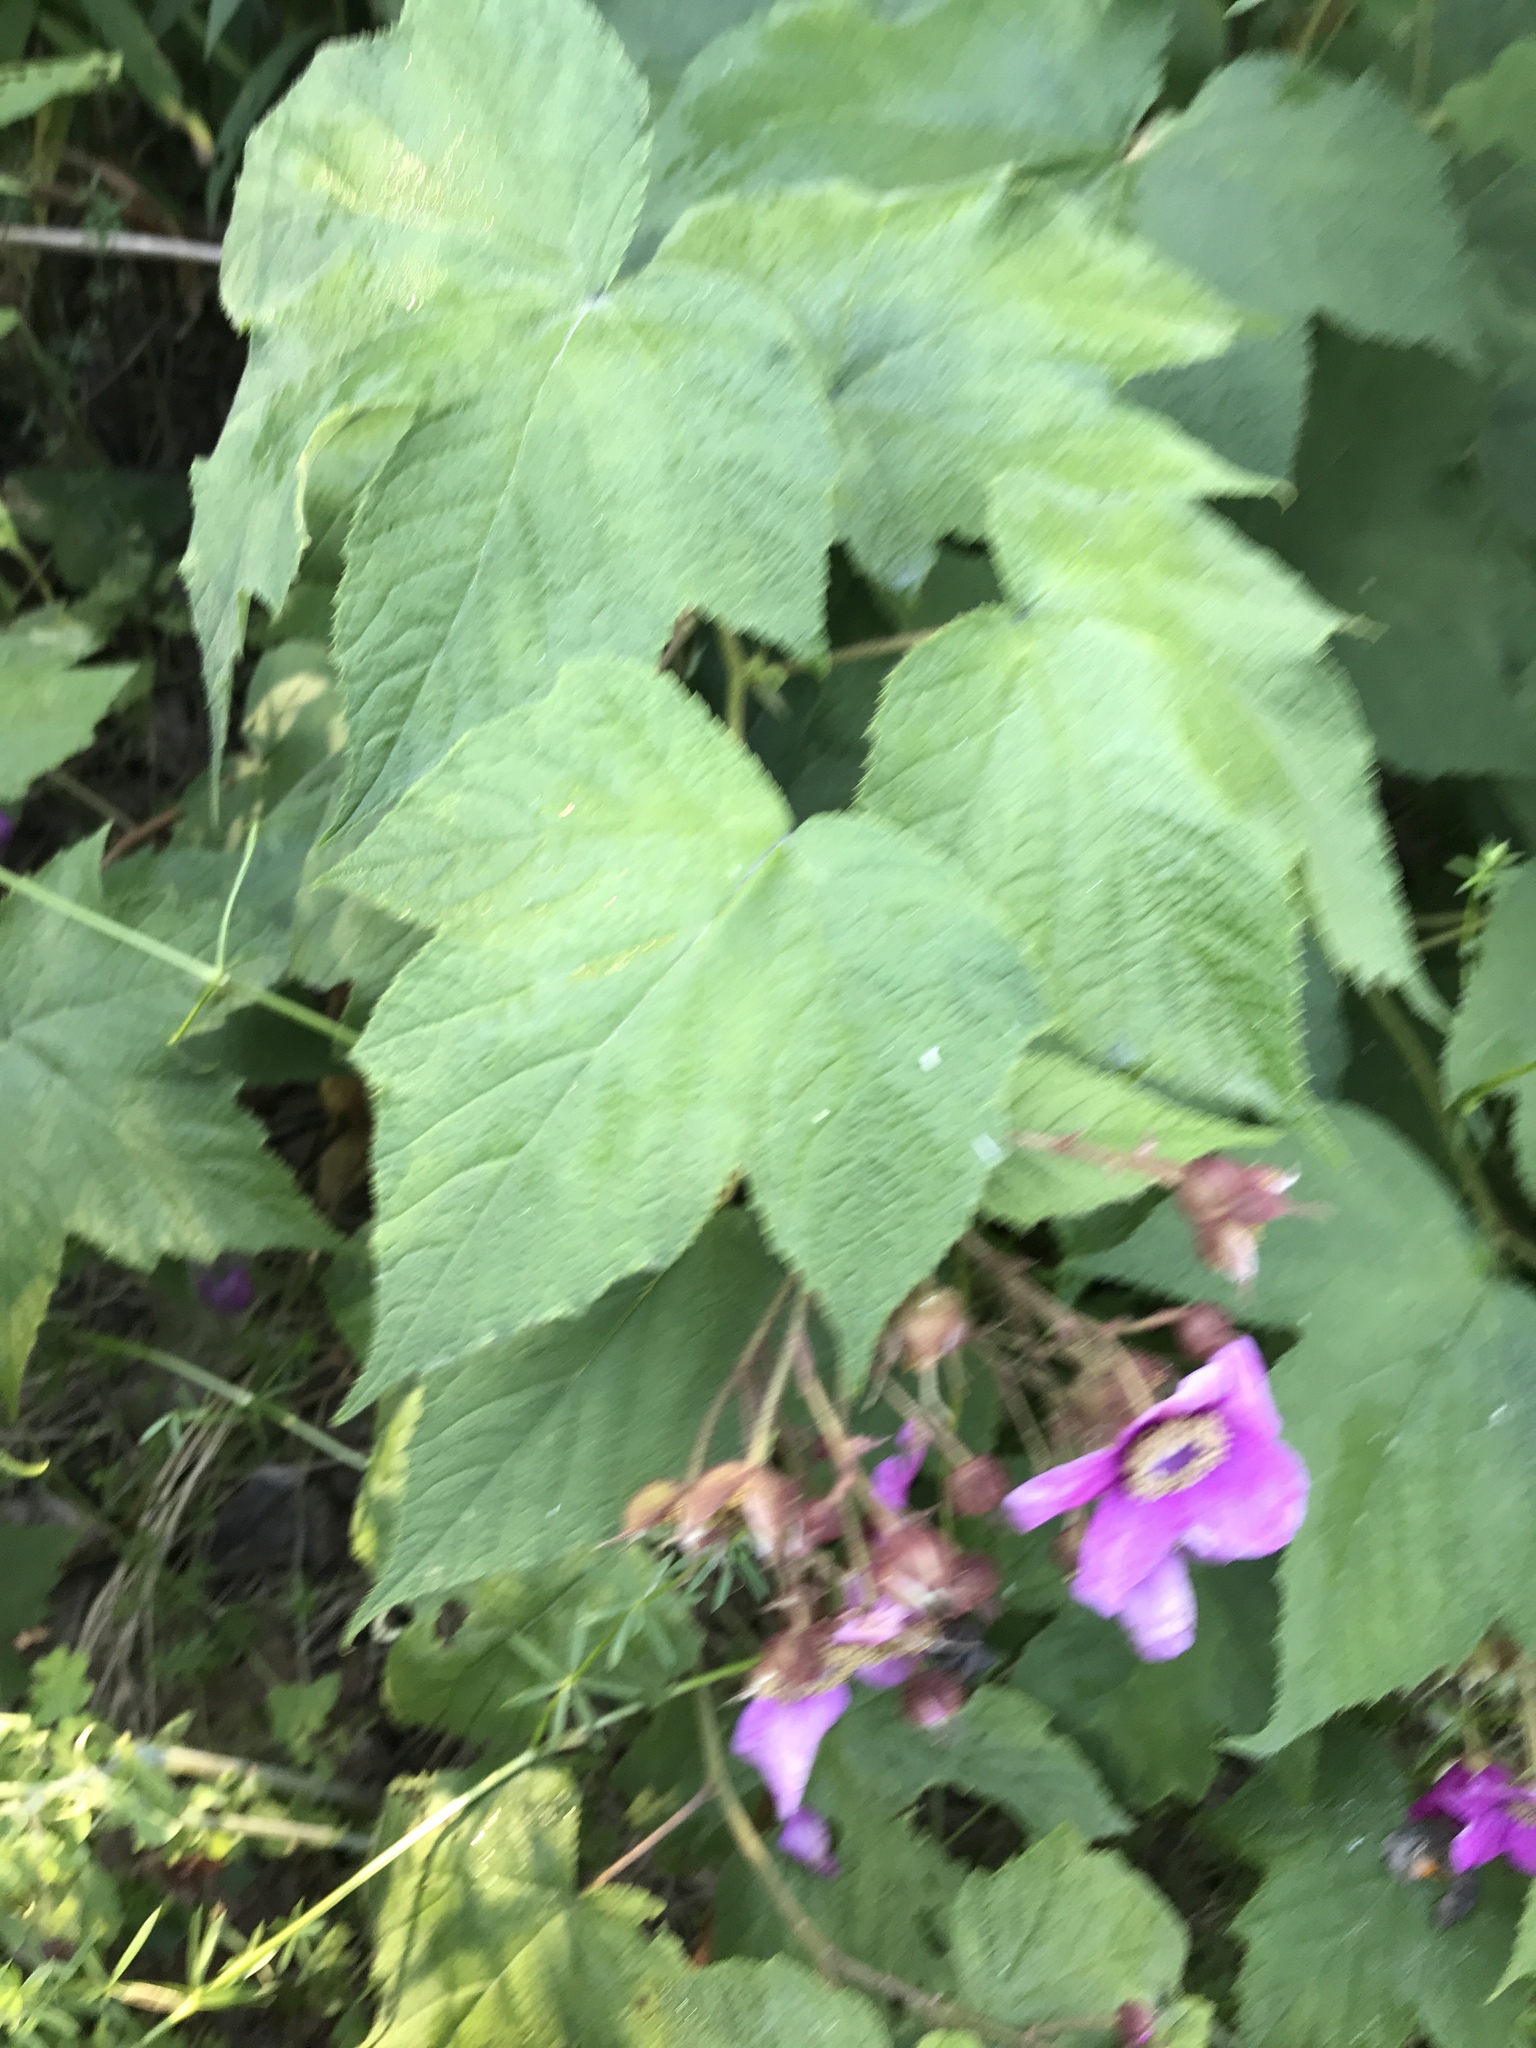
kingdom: Plantae
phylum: Tracheophyta
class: Magnoliopsida
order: Rosales
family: Rosaceae
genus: Rubus
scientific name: Rubus odoratus
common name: Purple-flowered raspberry
